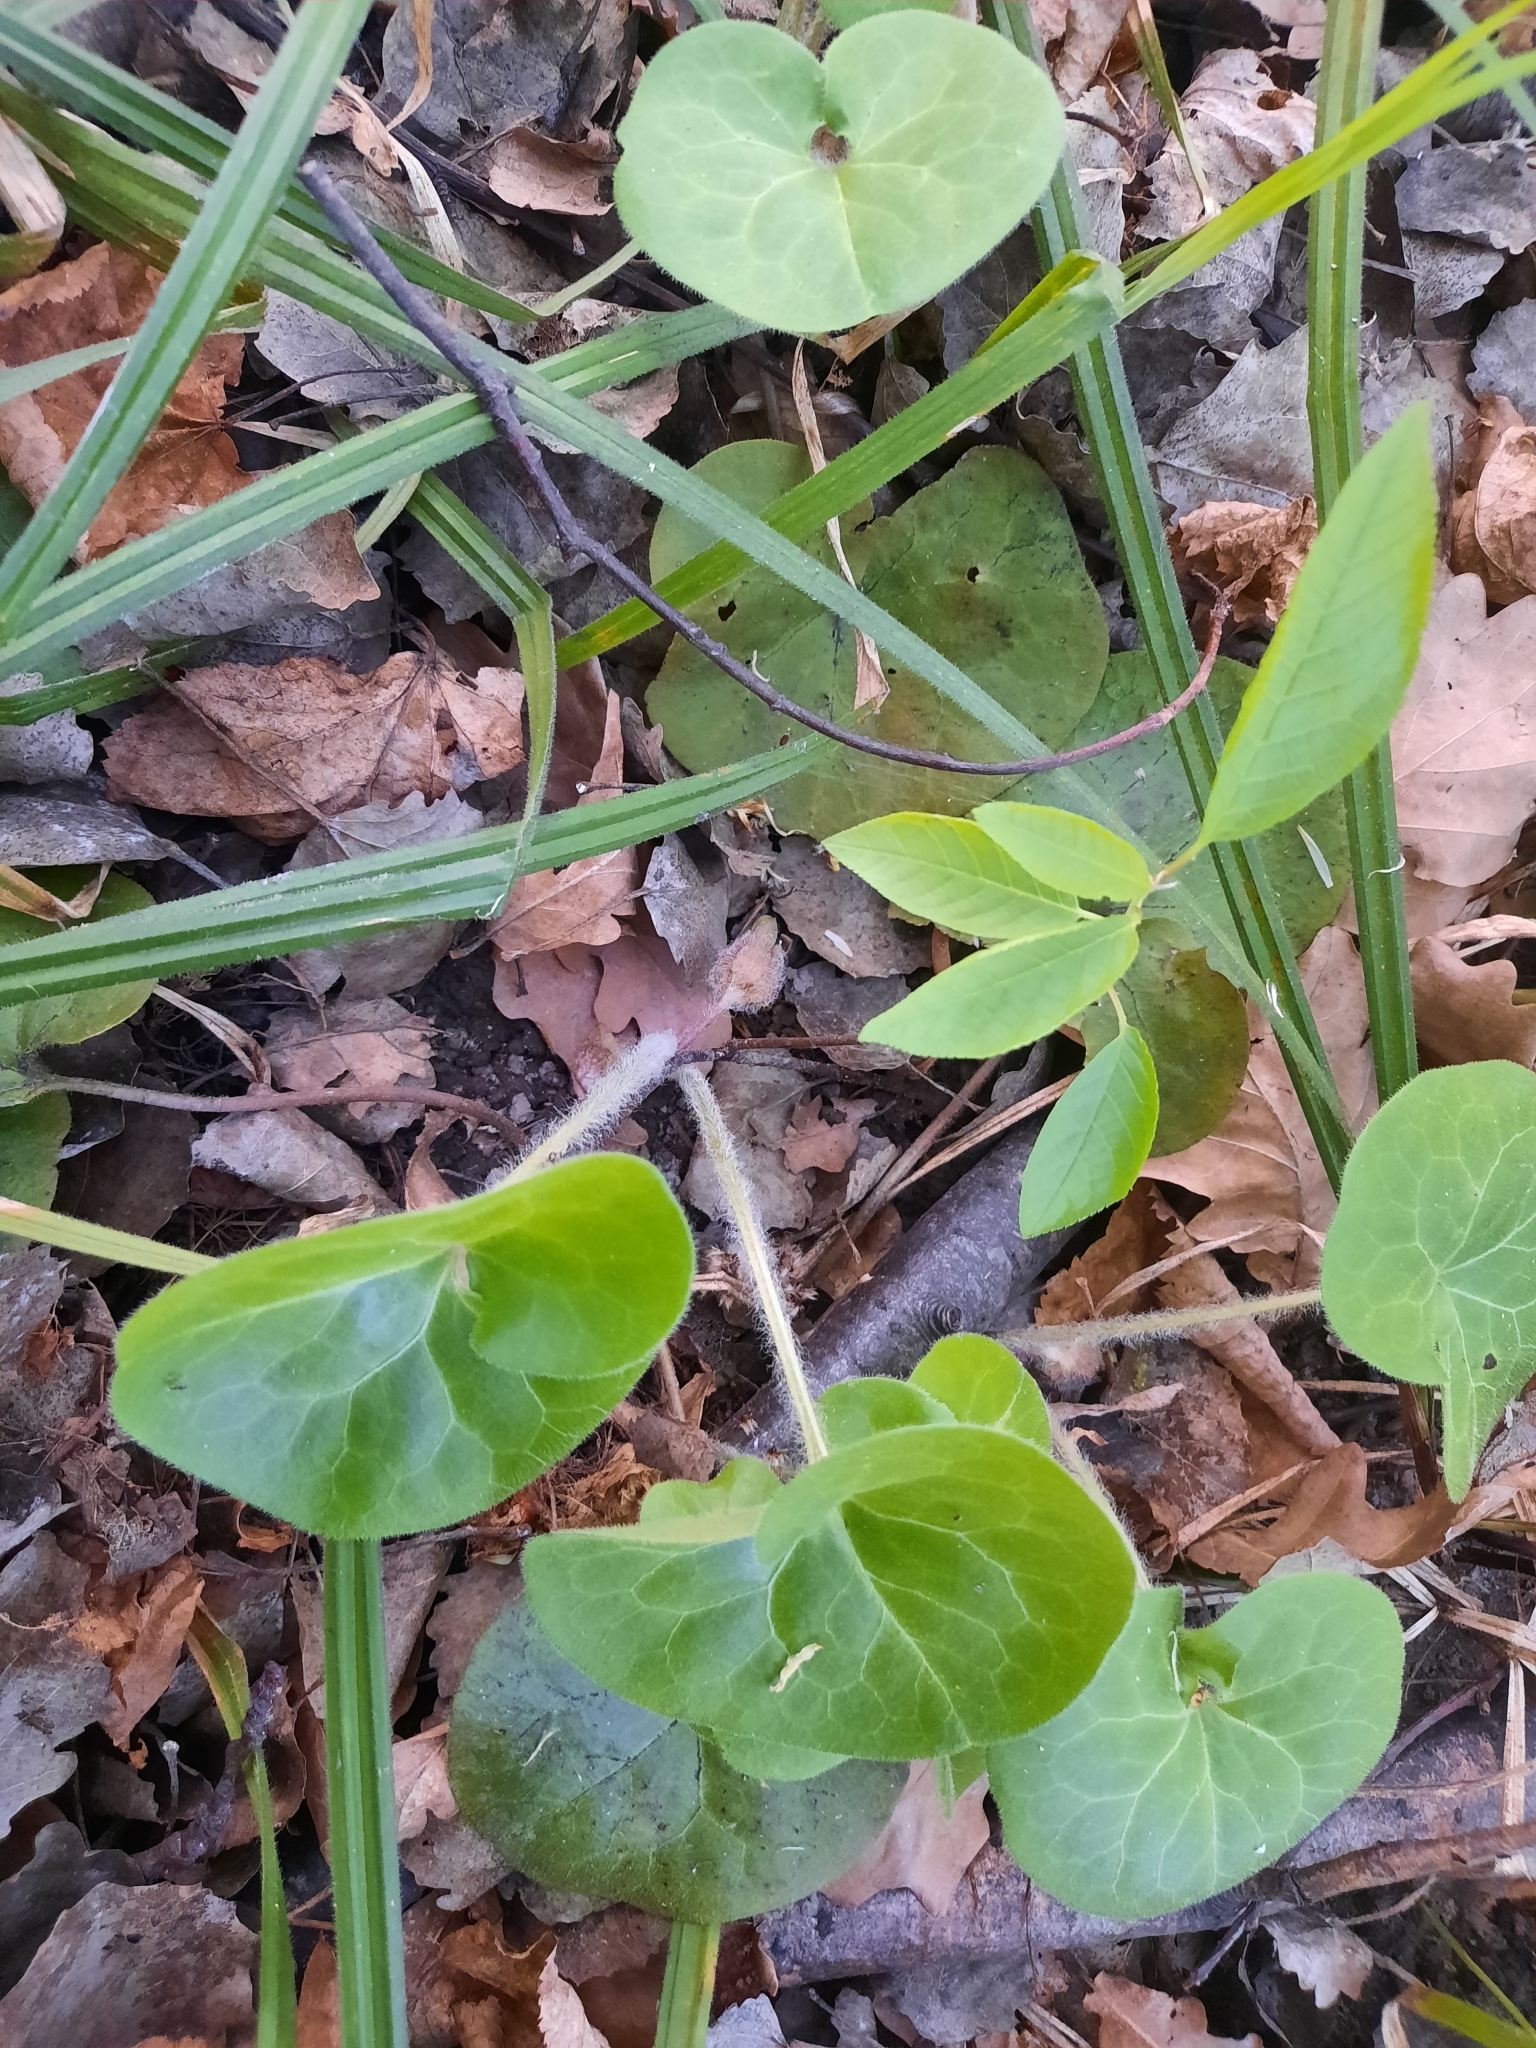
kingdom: Plantae
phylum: Tracheophyta
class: Magnoliopsida
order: Piperales
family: Aristolochiaceae
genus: Asarum
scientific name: Asarum europaeum
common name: Asarabacca
